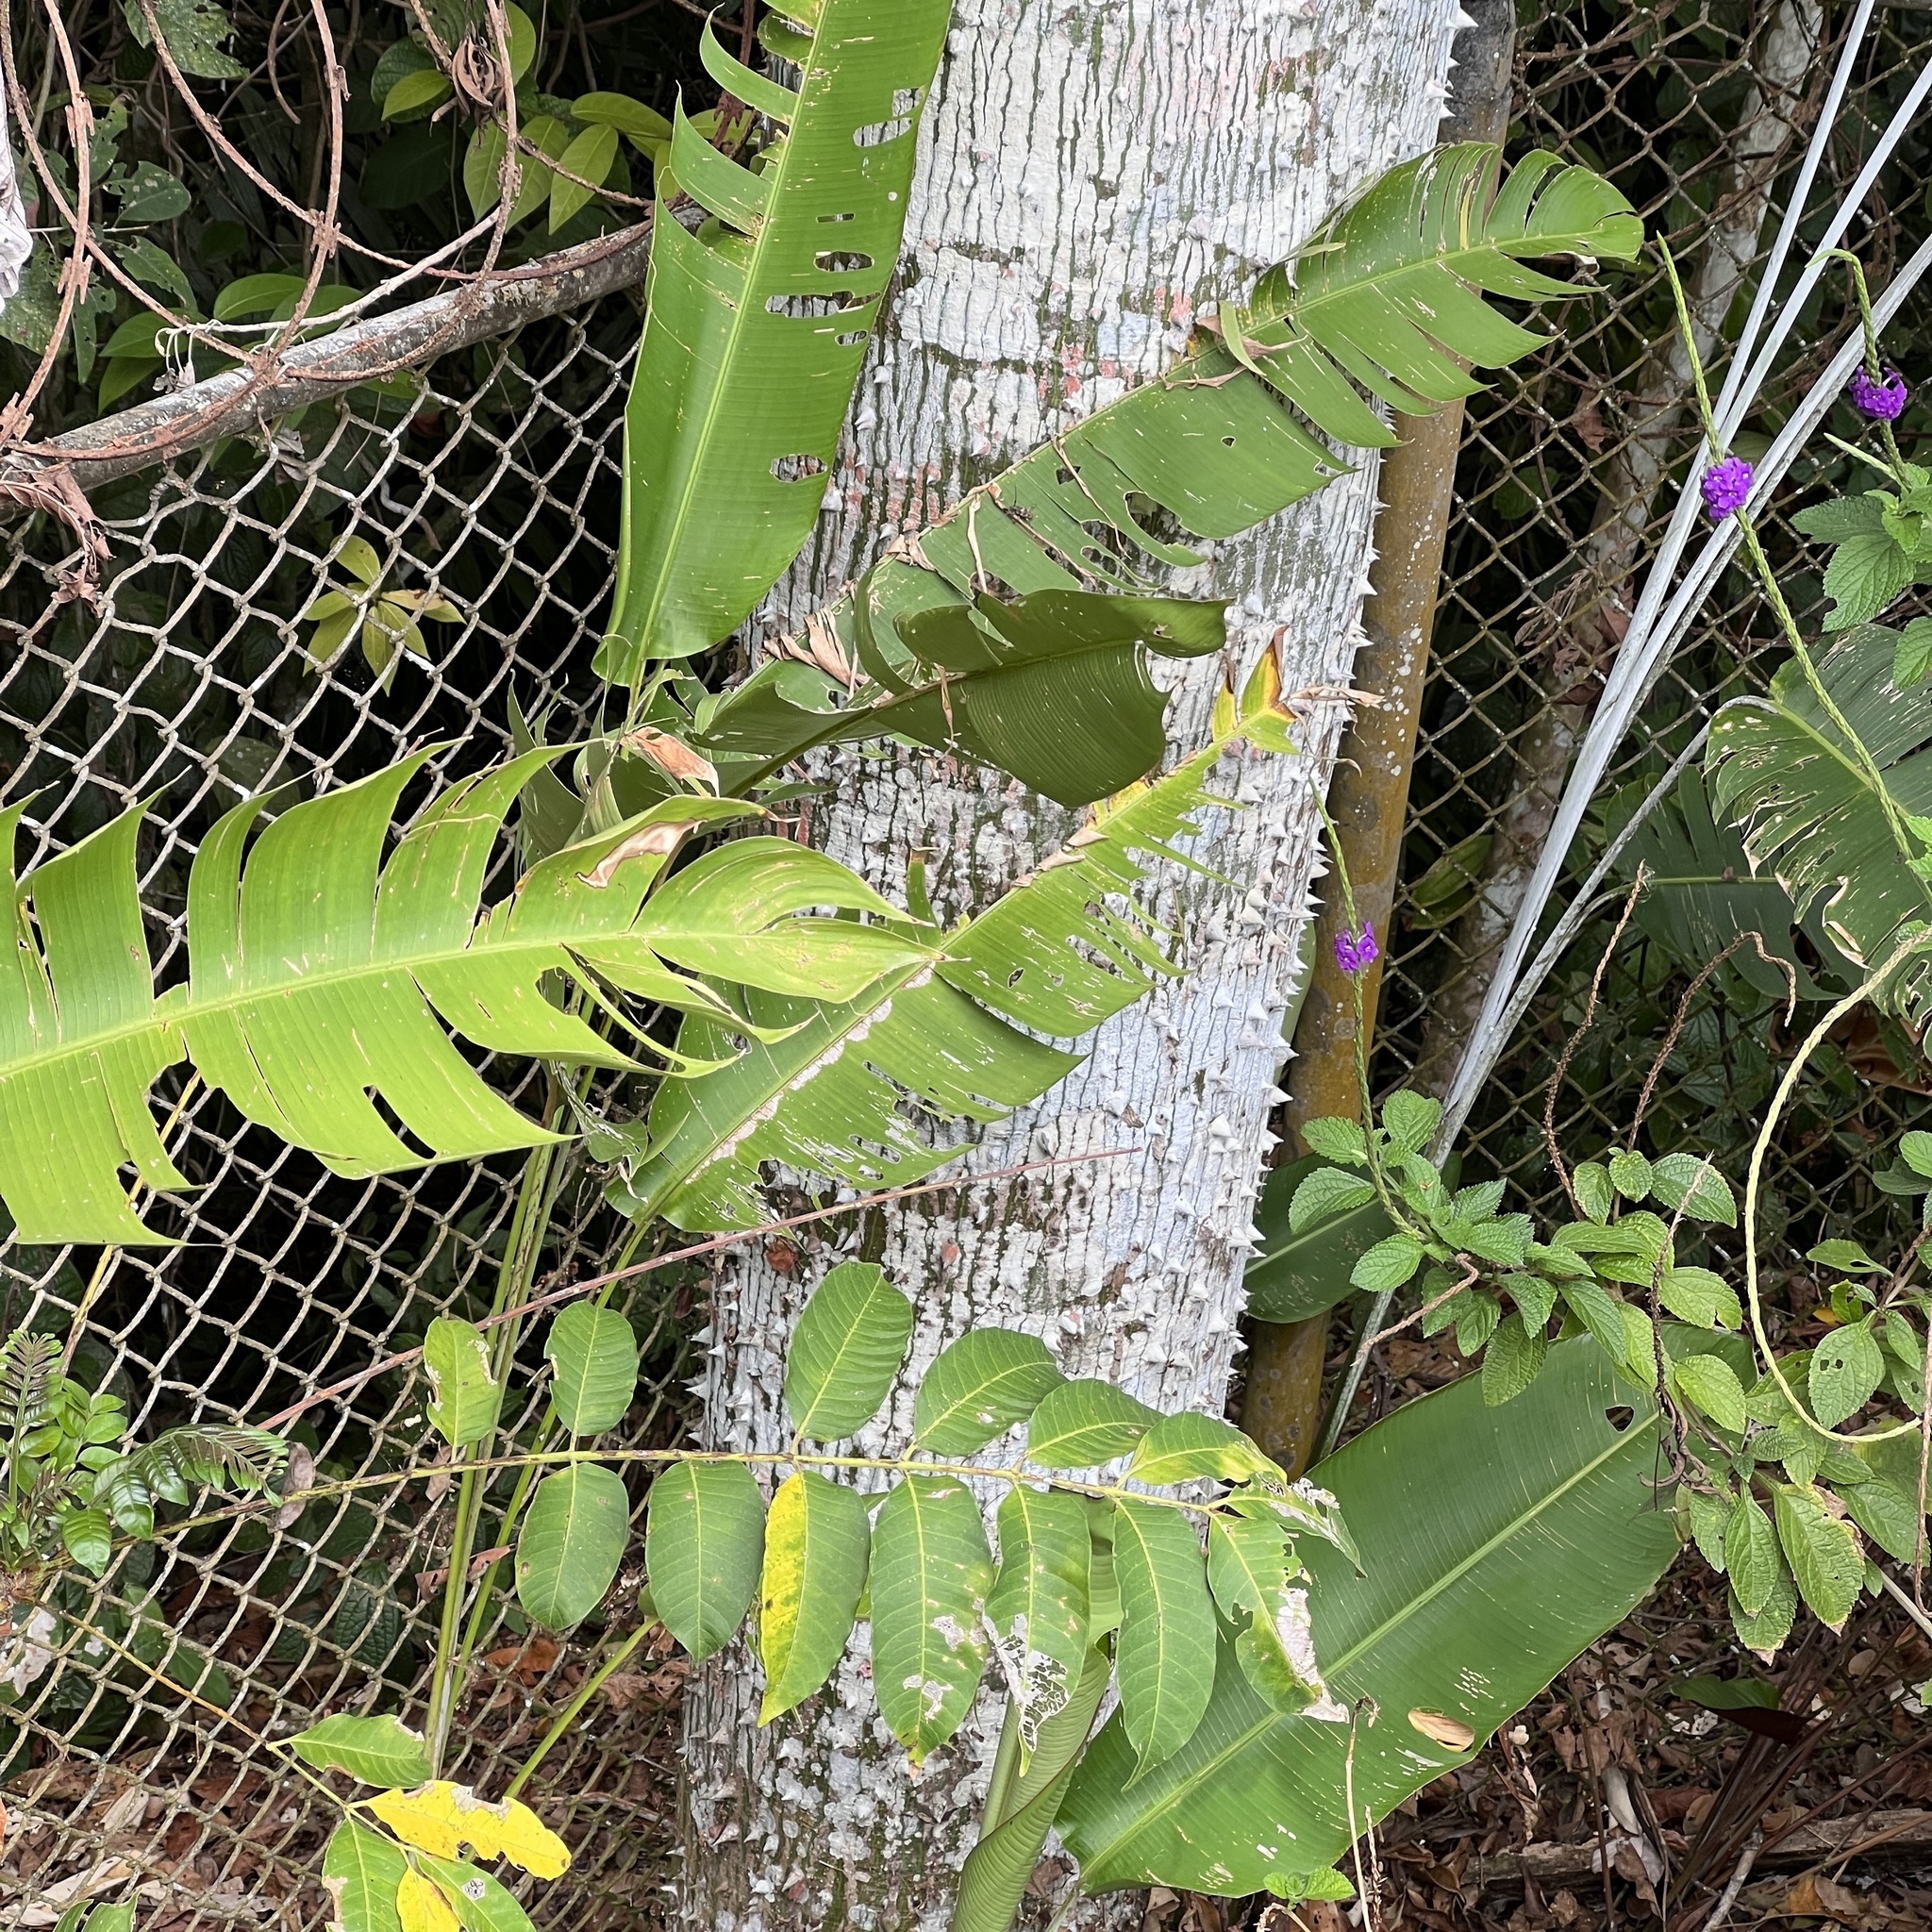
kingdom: Plantae
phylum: Tracheophyta
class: Liliopsida
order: Zingiberales
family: Heliconiaceae
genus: Heliconia
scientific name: Heliconia mariae
